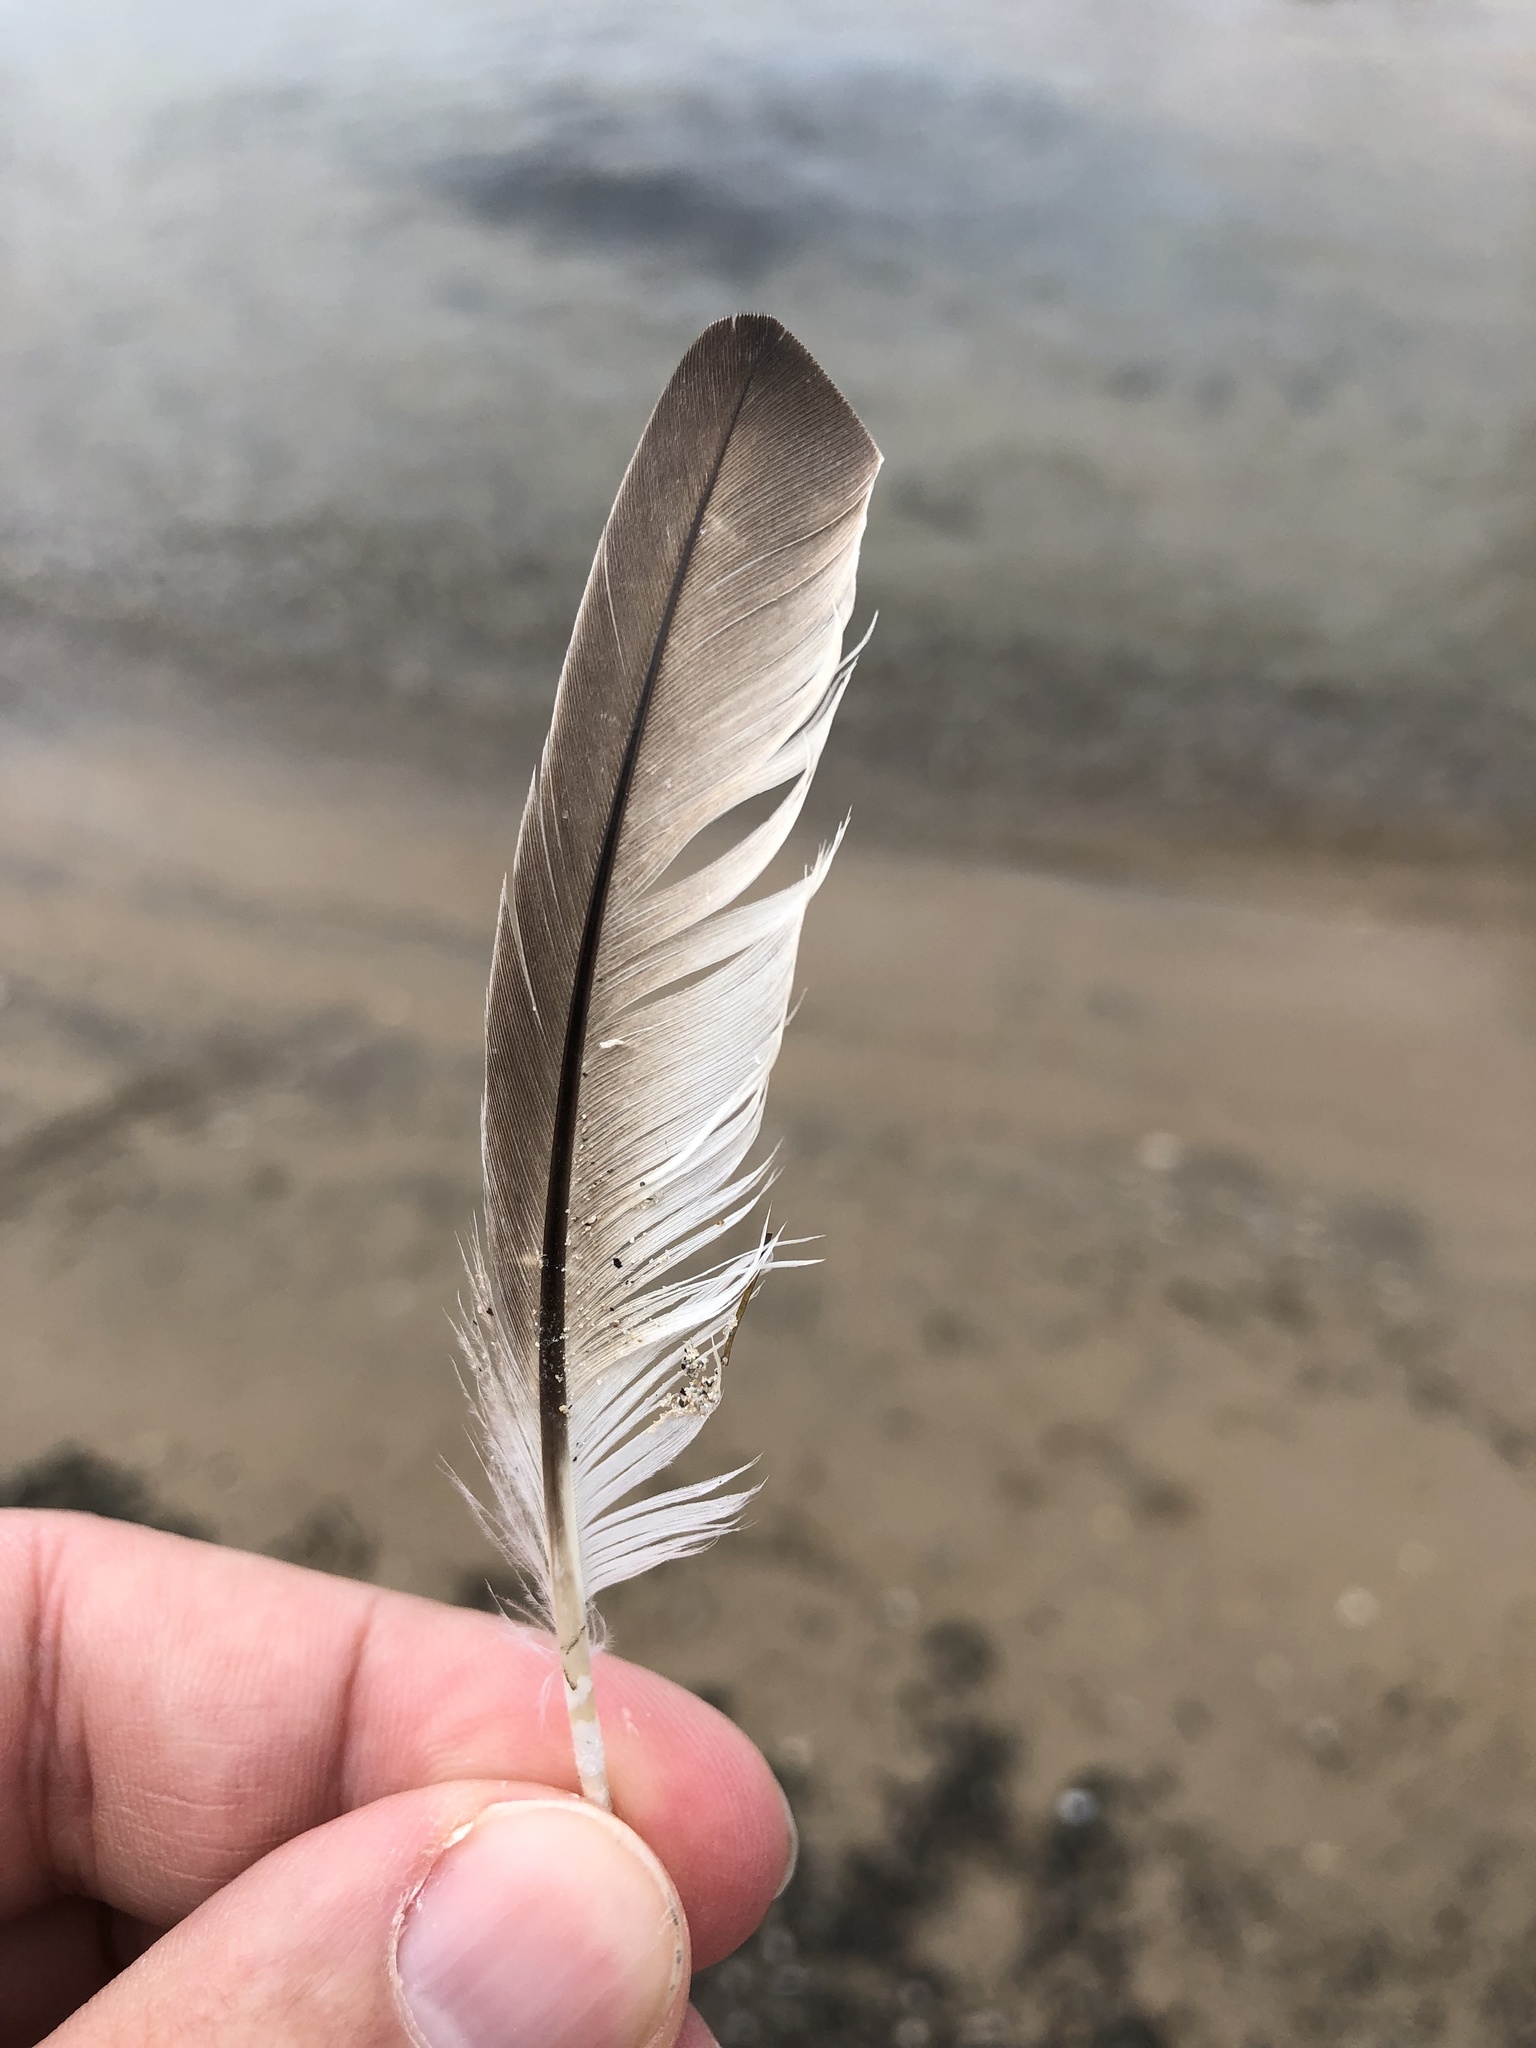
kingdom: Animalia
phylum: Chordata
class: Aves
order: Podicipediformes
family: Podicipedidae
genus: Podilymbus
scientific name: Podilymbus podiceps
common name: Pied-billed grebe
